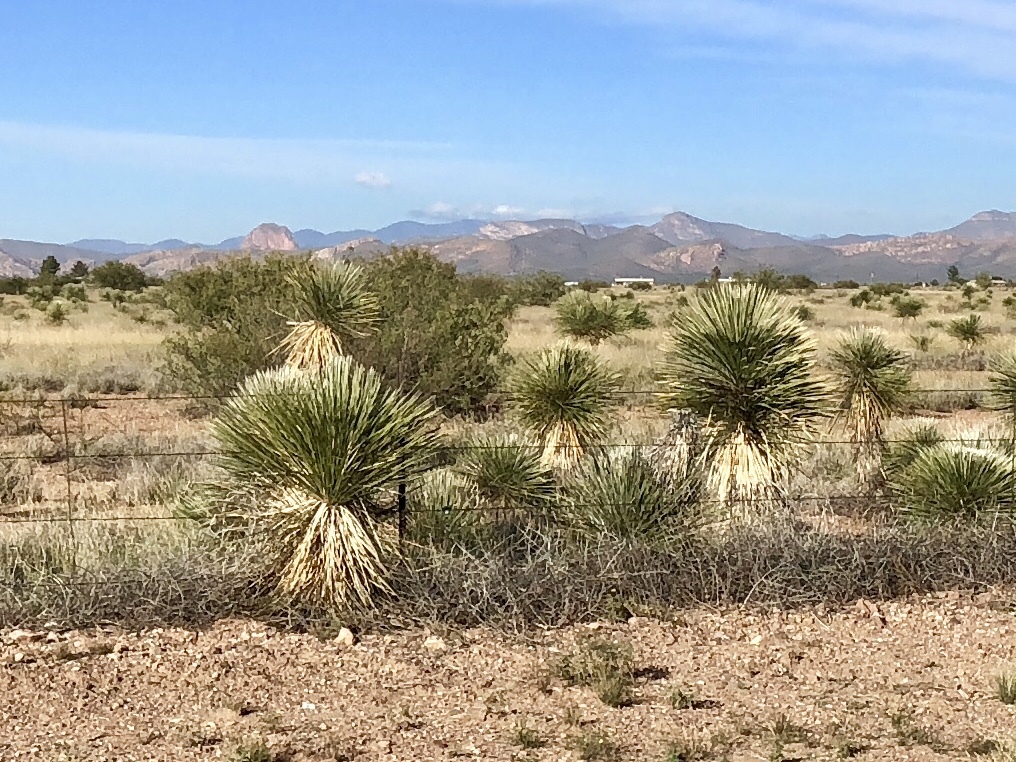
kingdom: Plantae
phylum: Tracheophyta
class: Liliopsida
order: Asparagales
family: Asparagaceae
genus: Yucca
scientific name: Yucca elata
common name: Palmella
